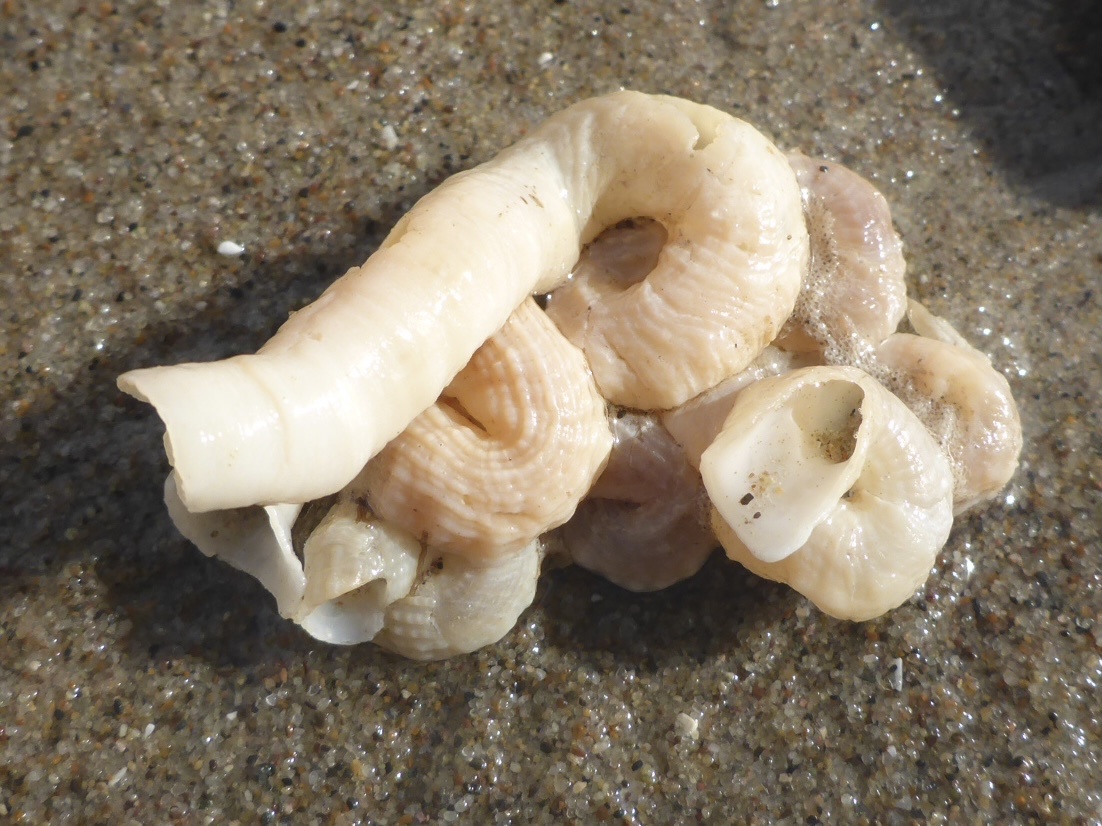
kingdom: Animalia
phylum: Mollusca
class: Gastropoda
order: Littorinimorpha
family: Vermetidae
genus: Thylacodes
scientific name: Thylacodes squamigerus
